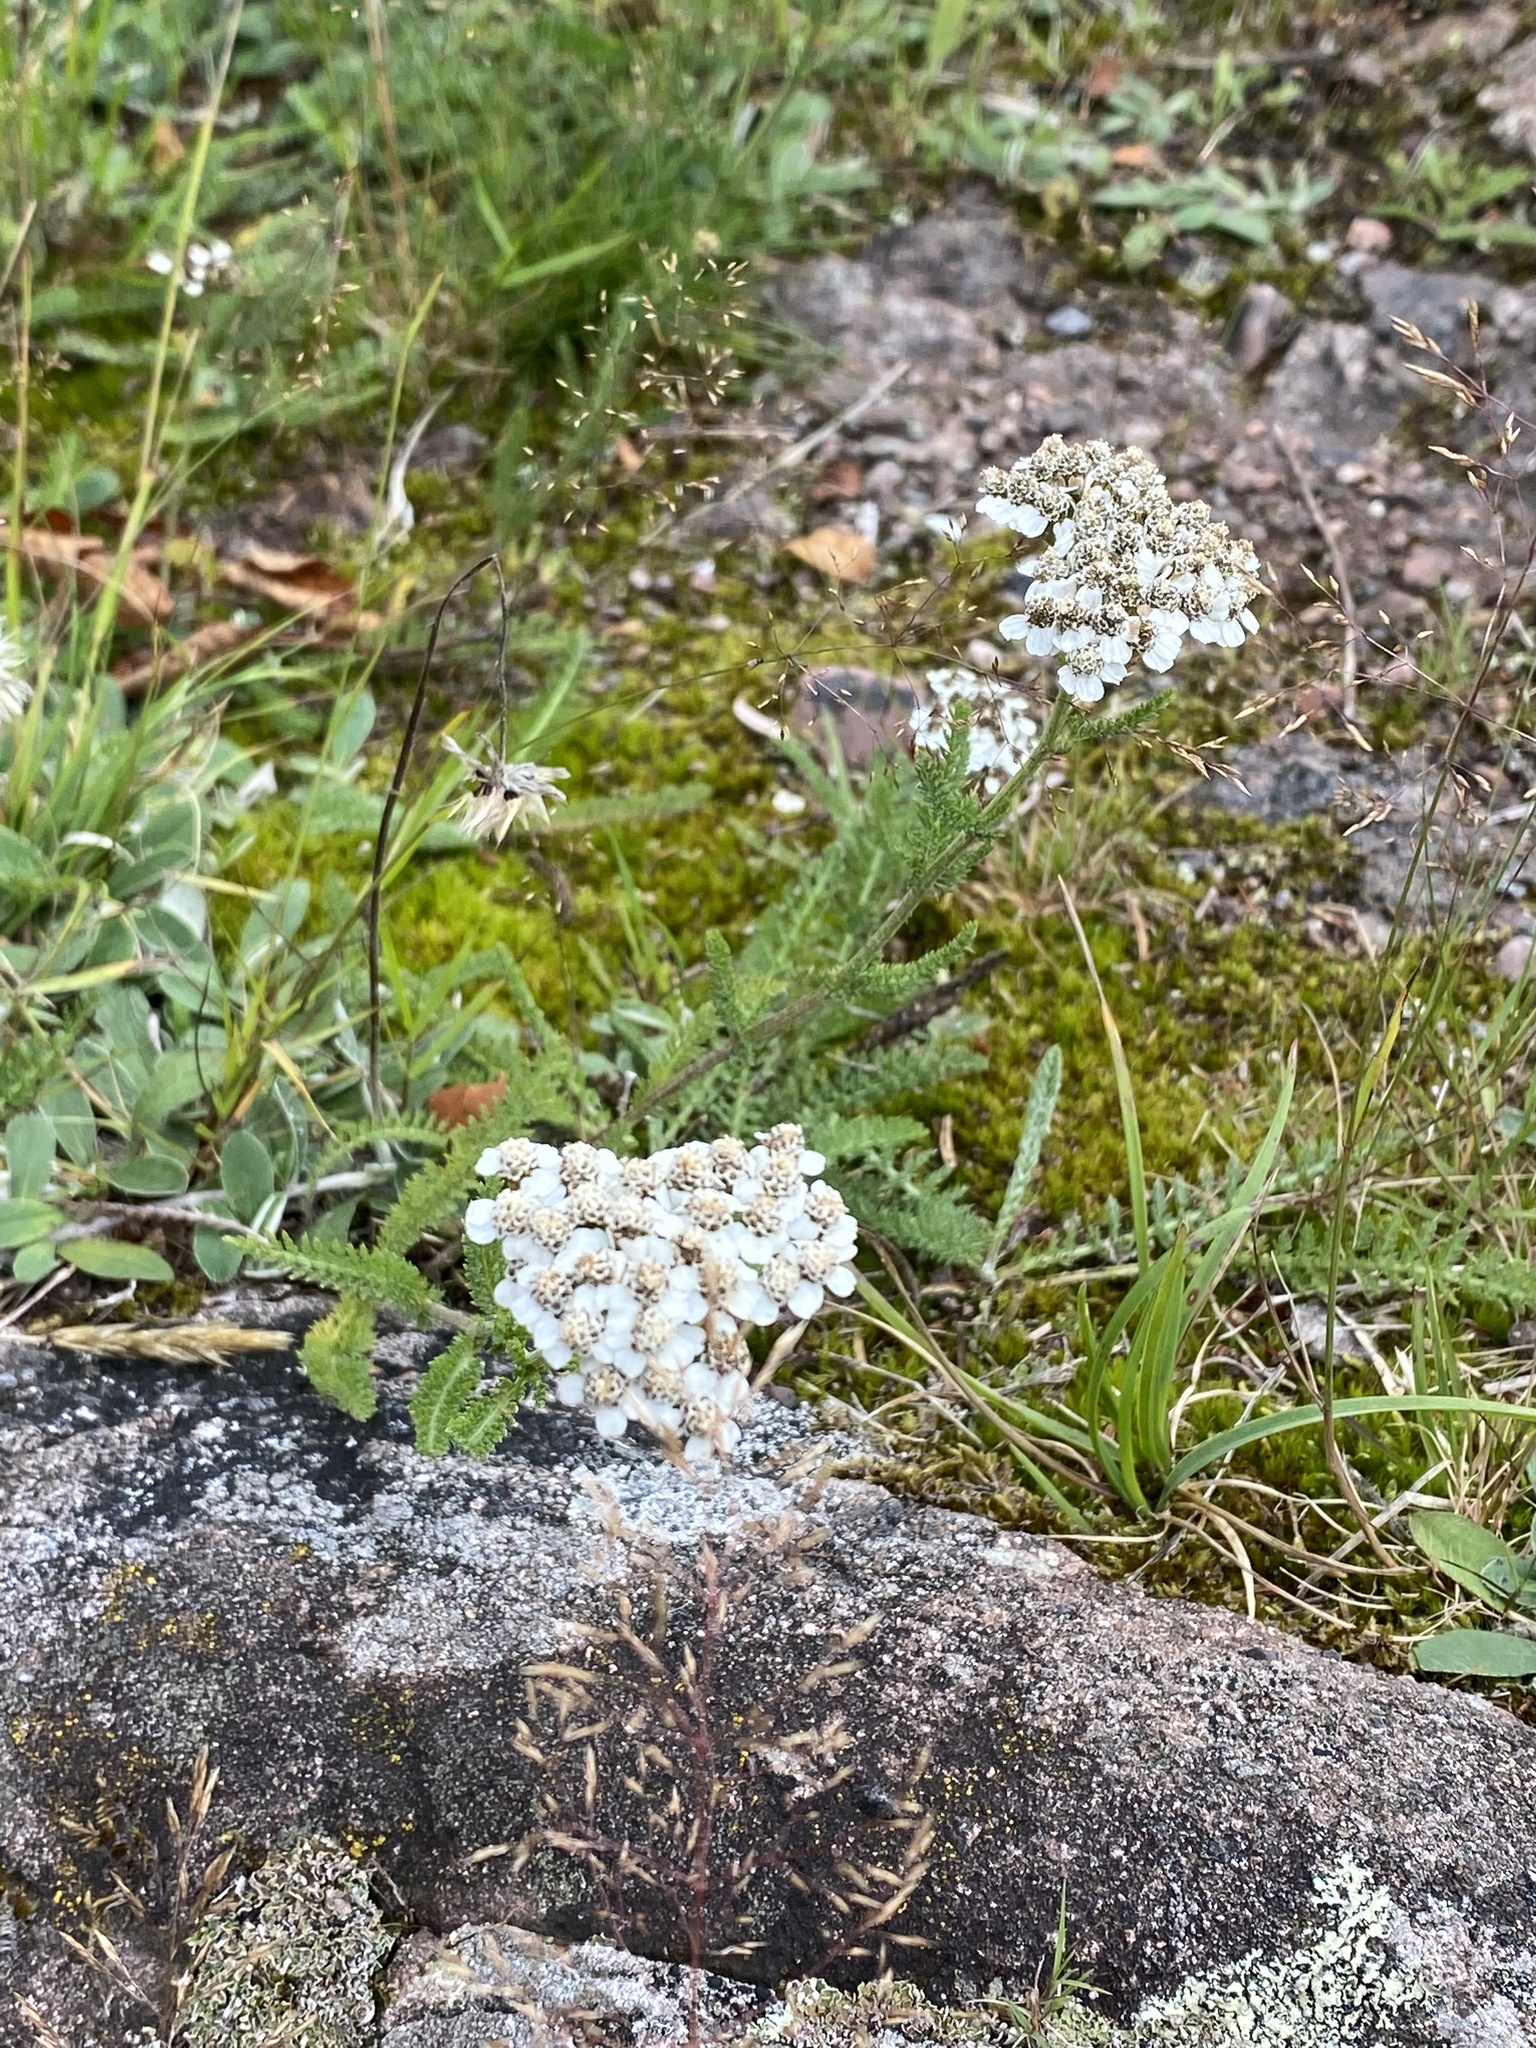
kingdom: Plantae
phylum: Tracheophyta
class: Magnoliopsida
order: Asterales
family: Asteraceae
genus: Achillea
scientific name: Achillea millefolium
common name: Yarrow
